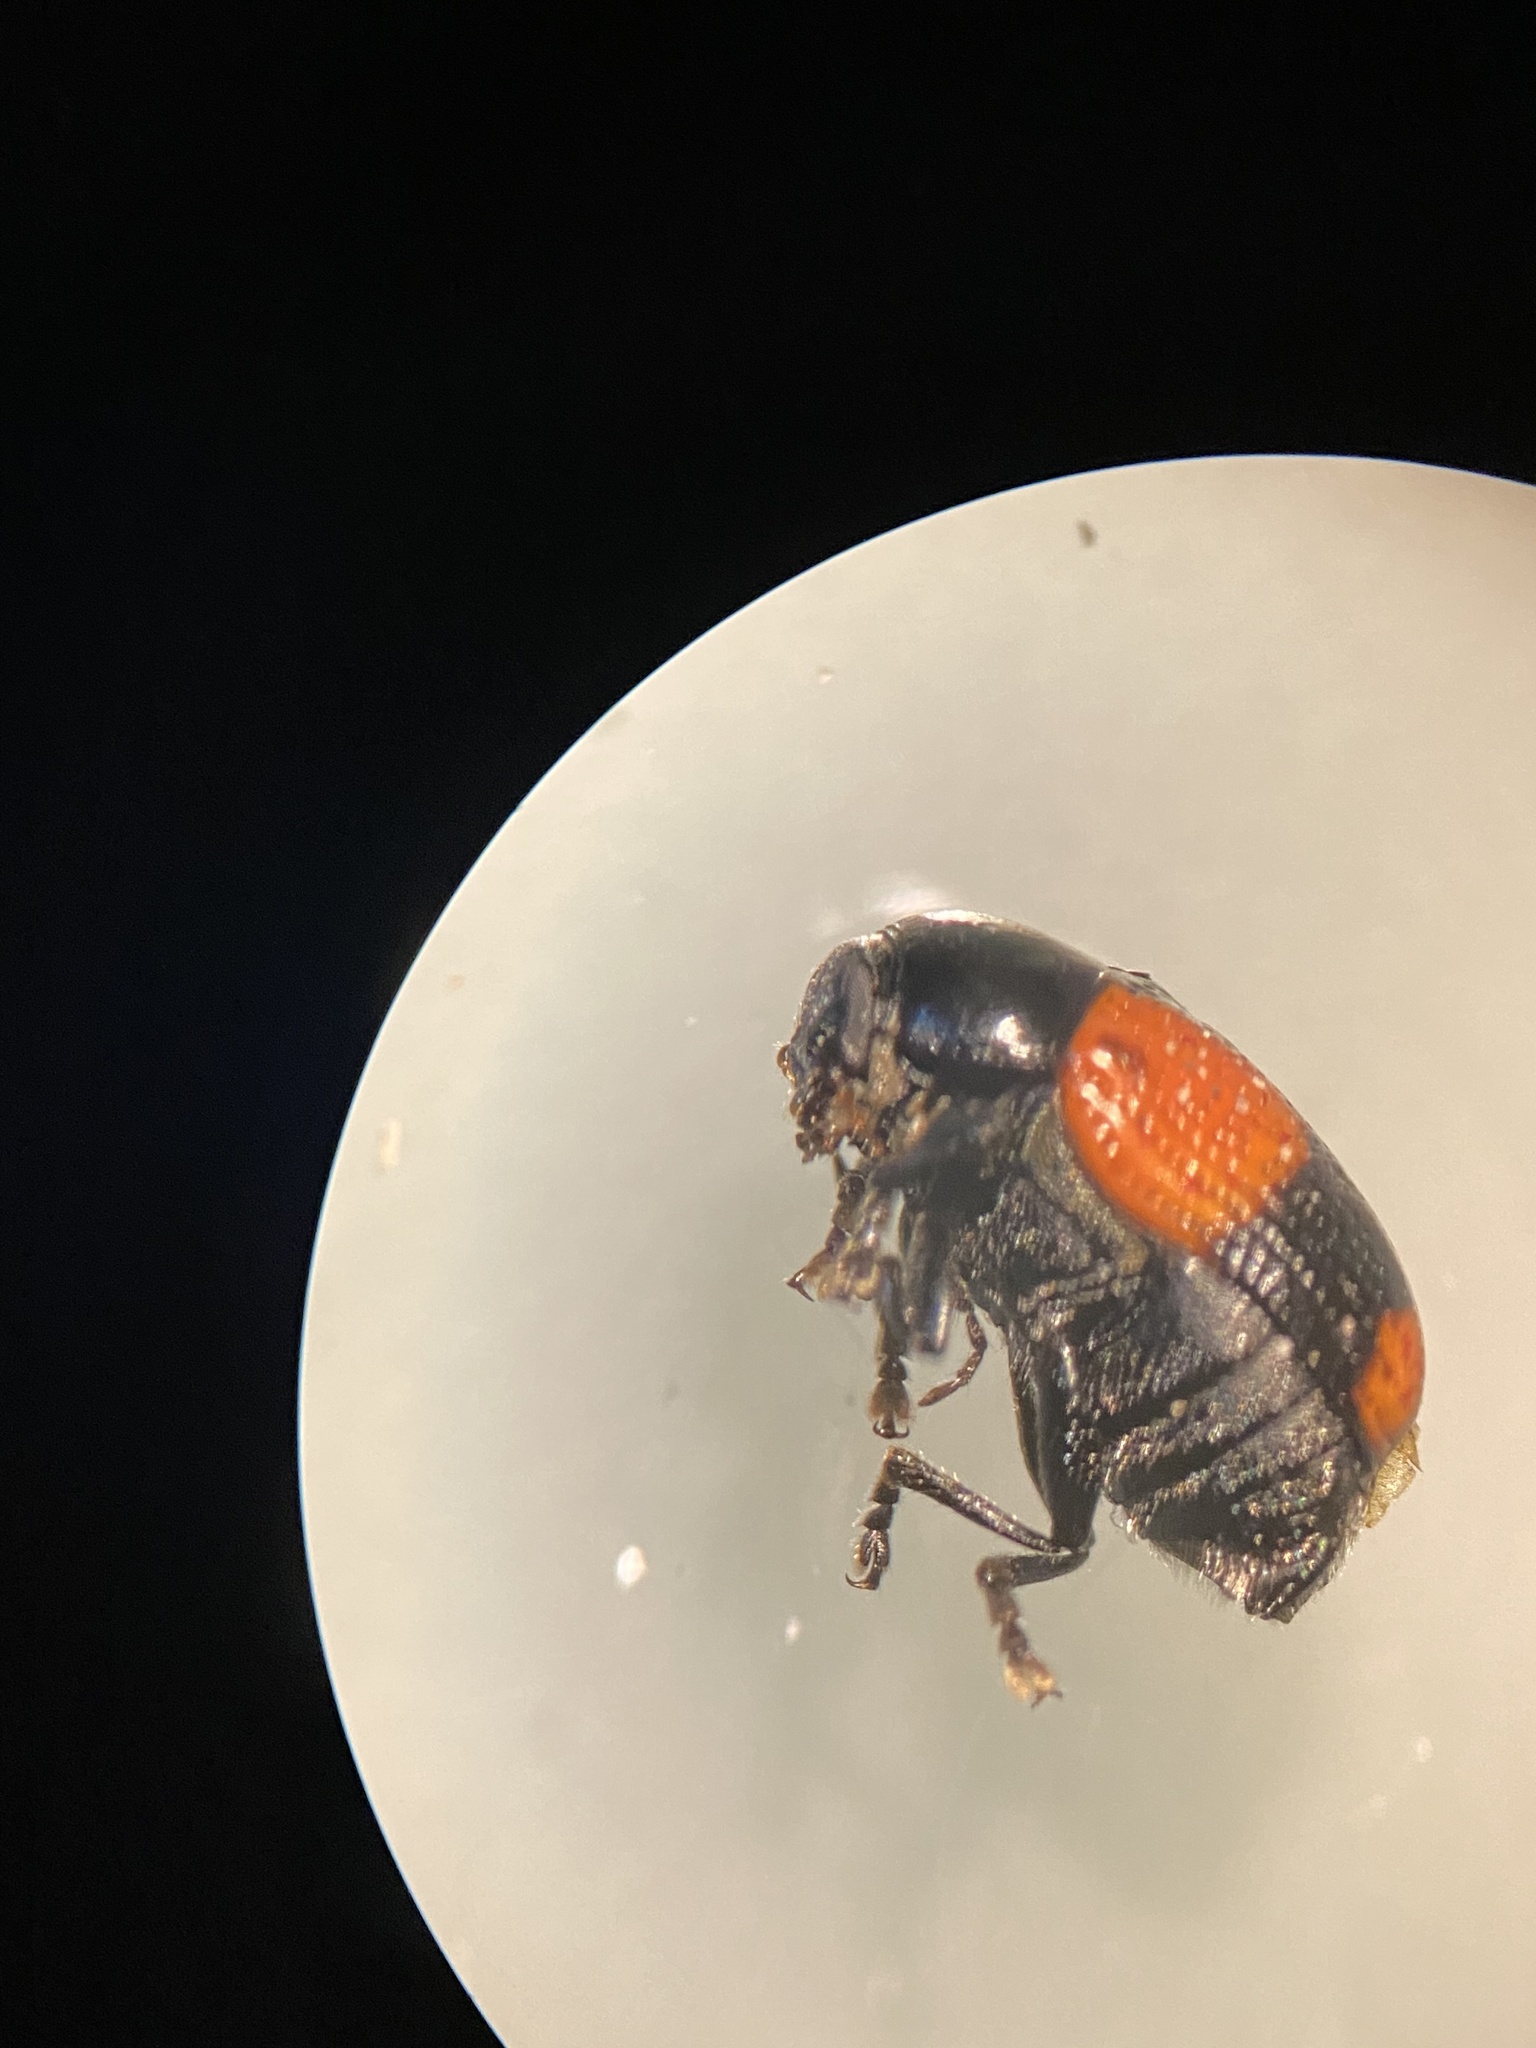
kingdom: Animalia
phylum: Arthropoda
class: Insecta
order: Coleoptera
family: Chrysomelidae
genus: Cryptocephalus
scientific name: Cryptocephalus quadruplex
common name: Black and red sumac leaf beetle
